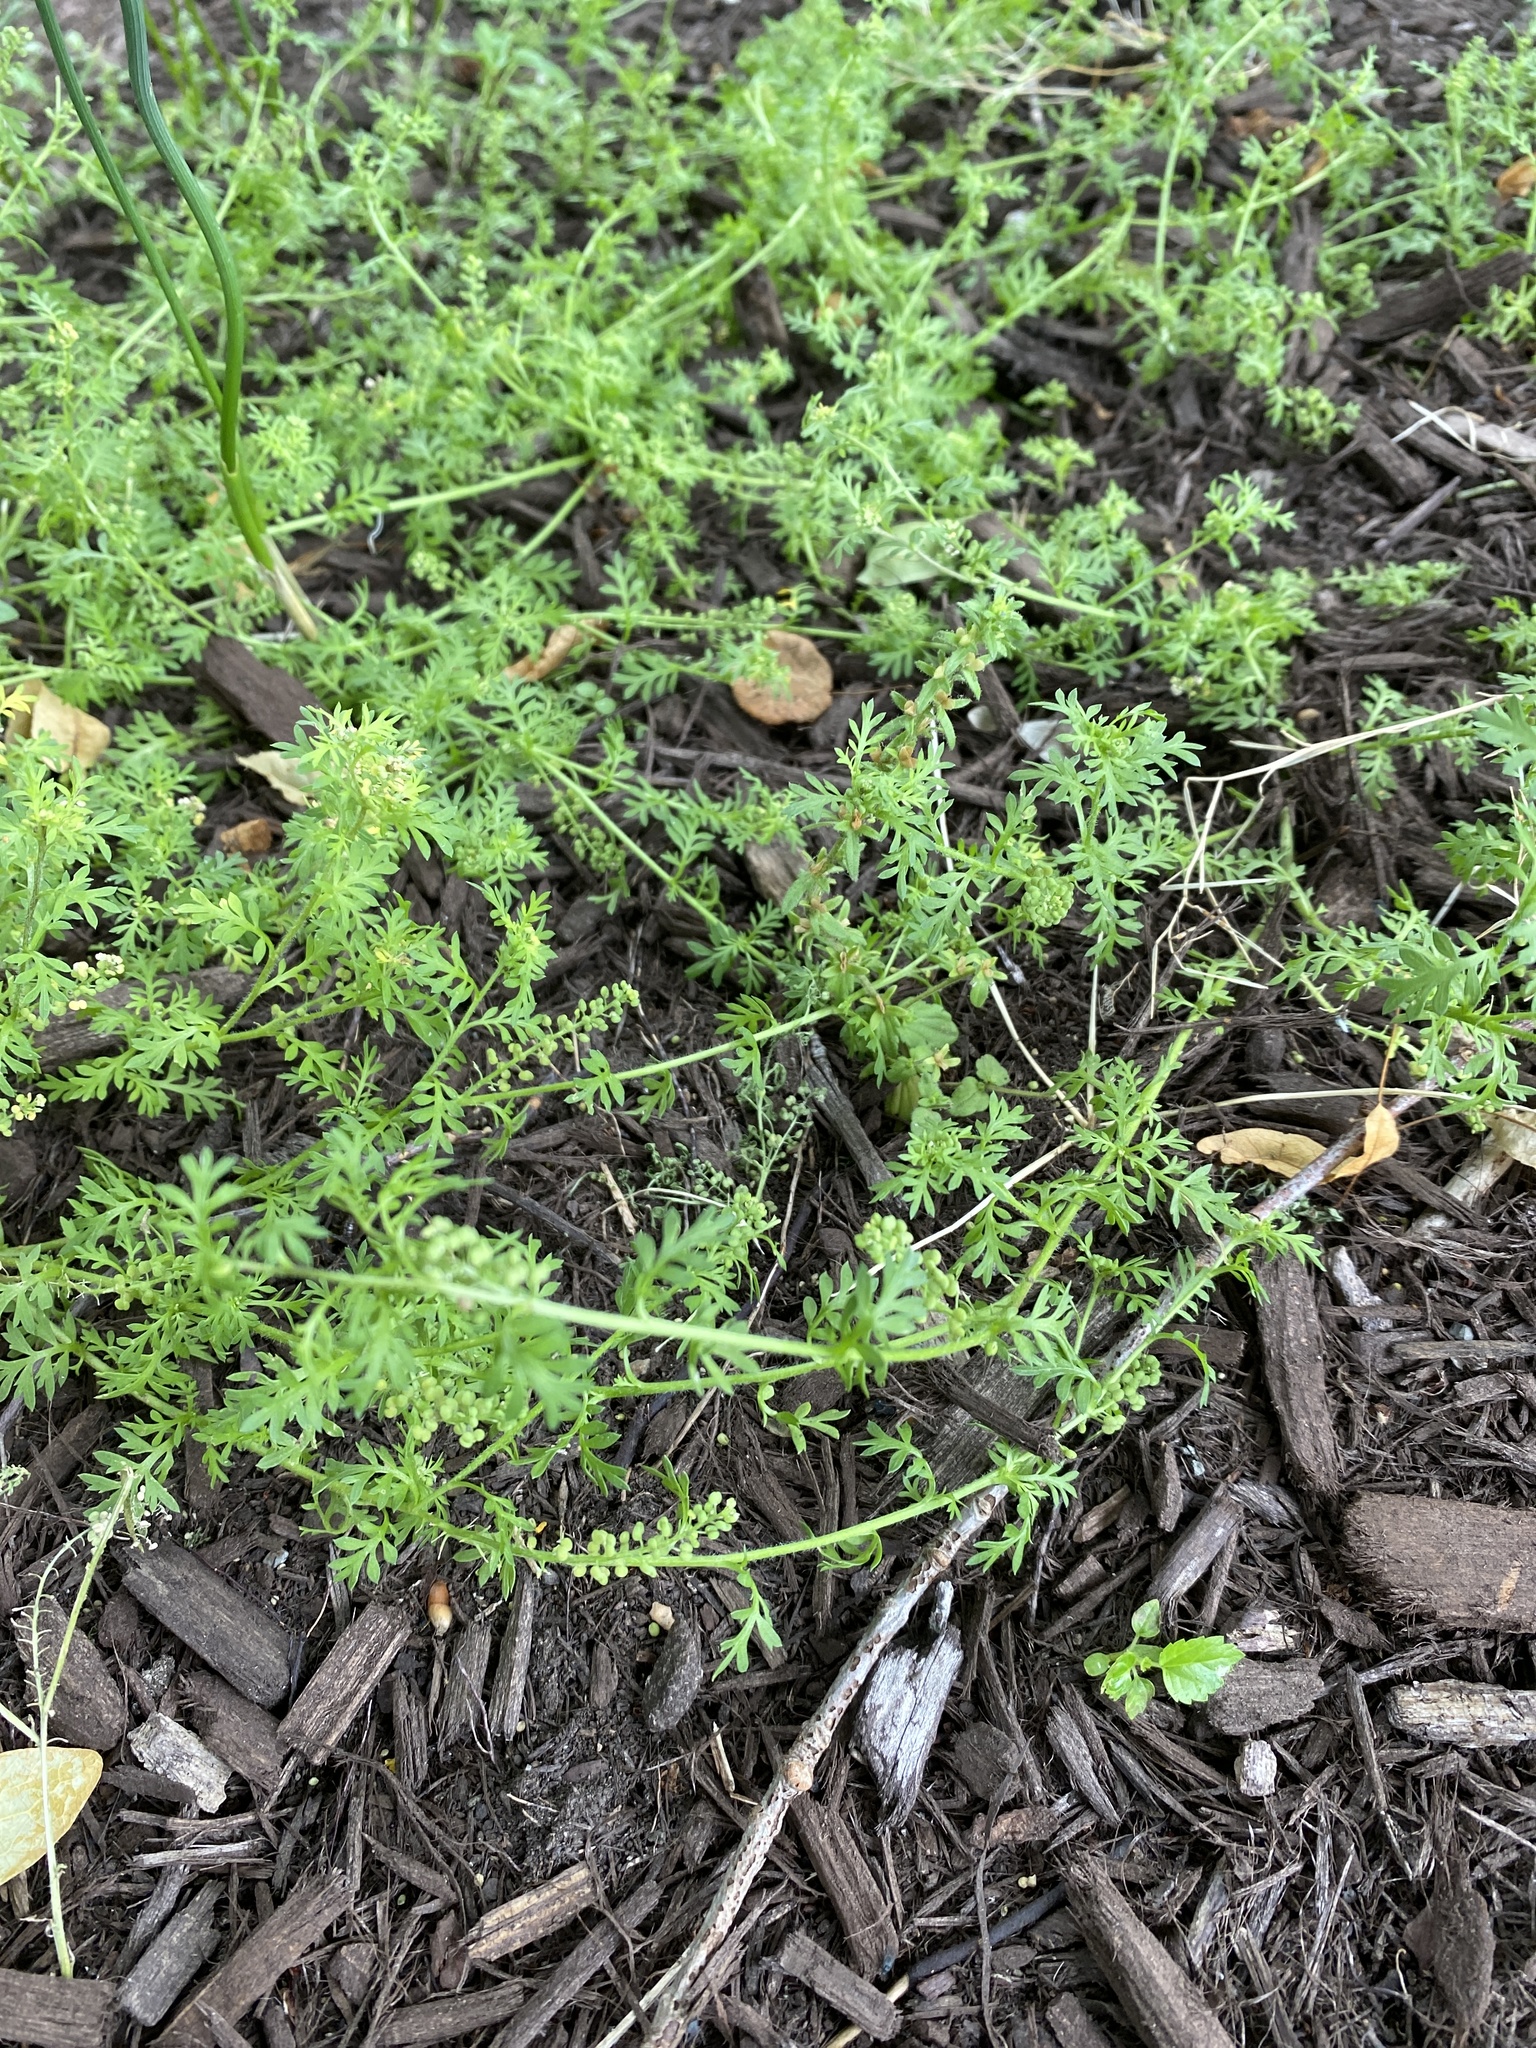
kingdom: Plantae
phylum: Tracheophyta
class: Magnoliopsida
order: Brassicales
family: Brassicaceae
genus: Lepidium
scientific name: Lepidium didymum
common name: Lesser swinecress
